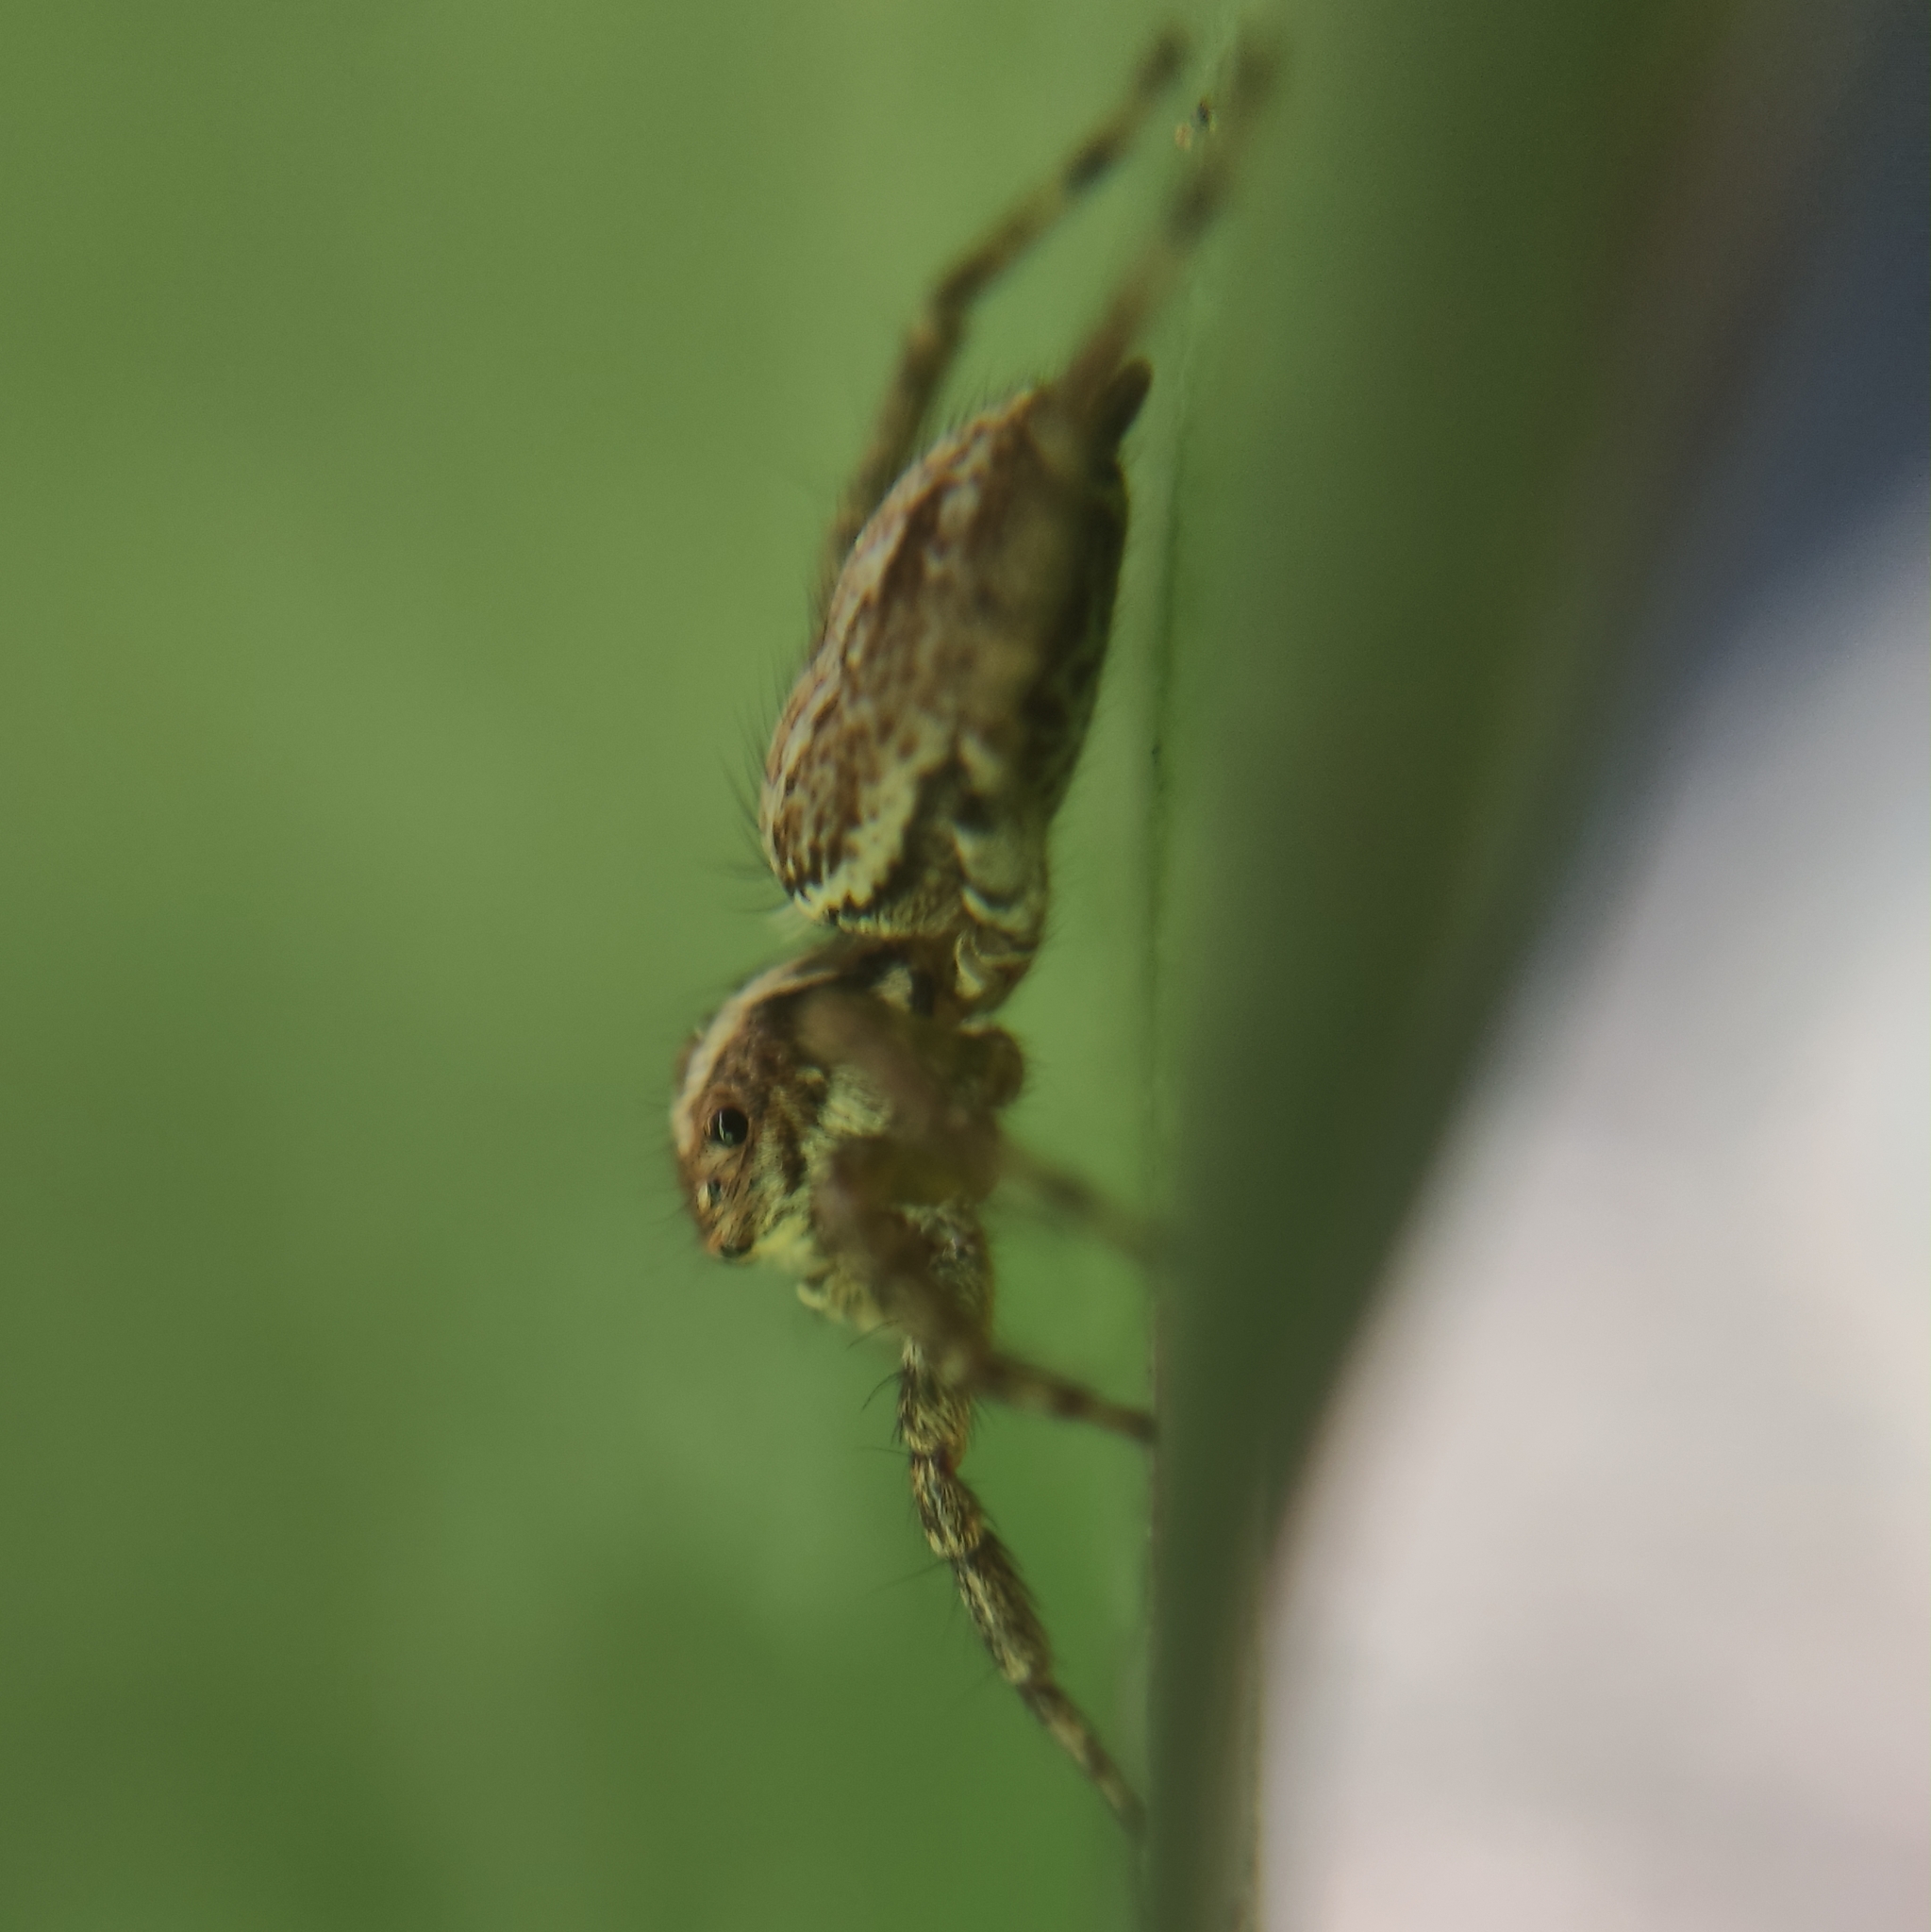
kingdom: Animalia
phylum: Arthropoda
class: Arachnida
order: Araneae
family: Salticidae
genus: Asaphobelis
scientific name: Asaphobelis physonychus
